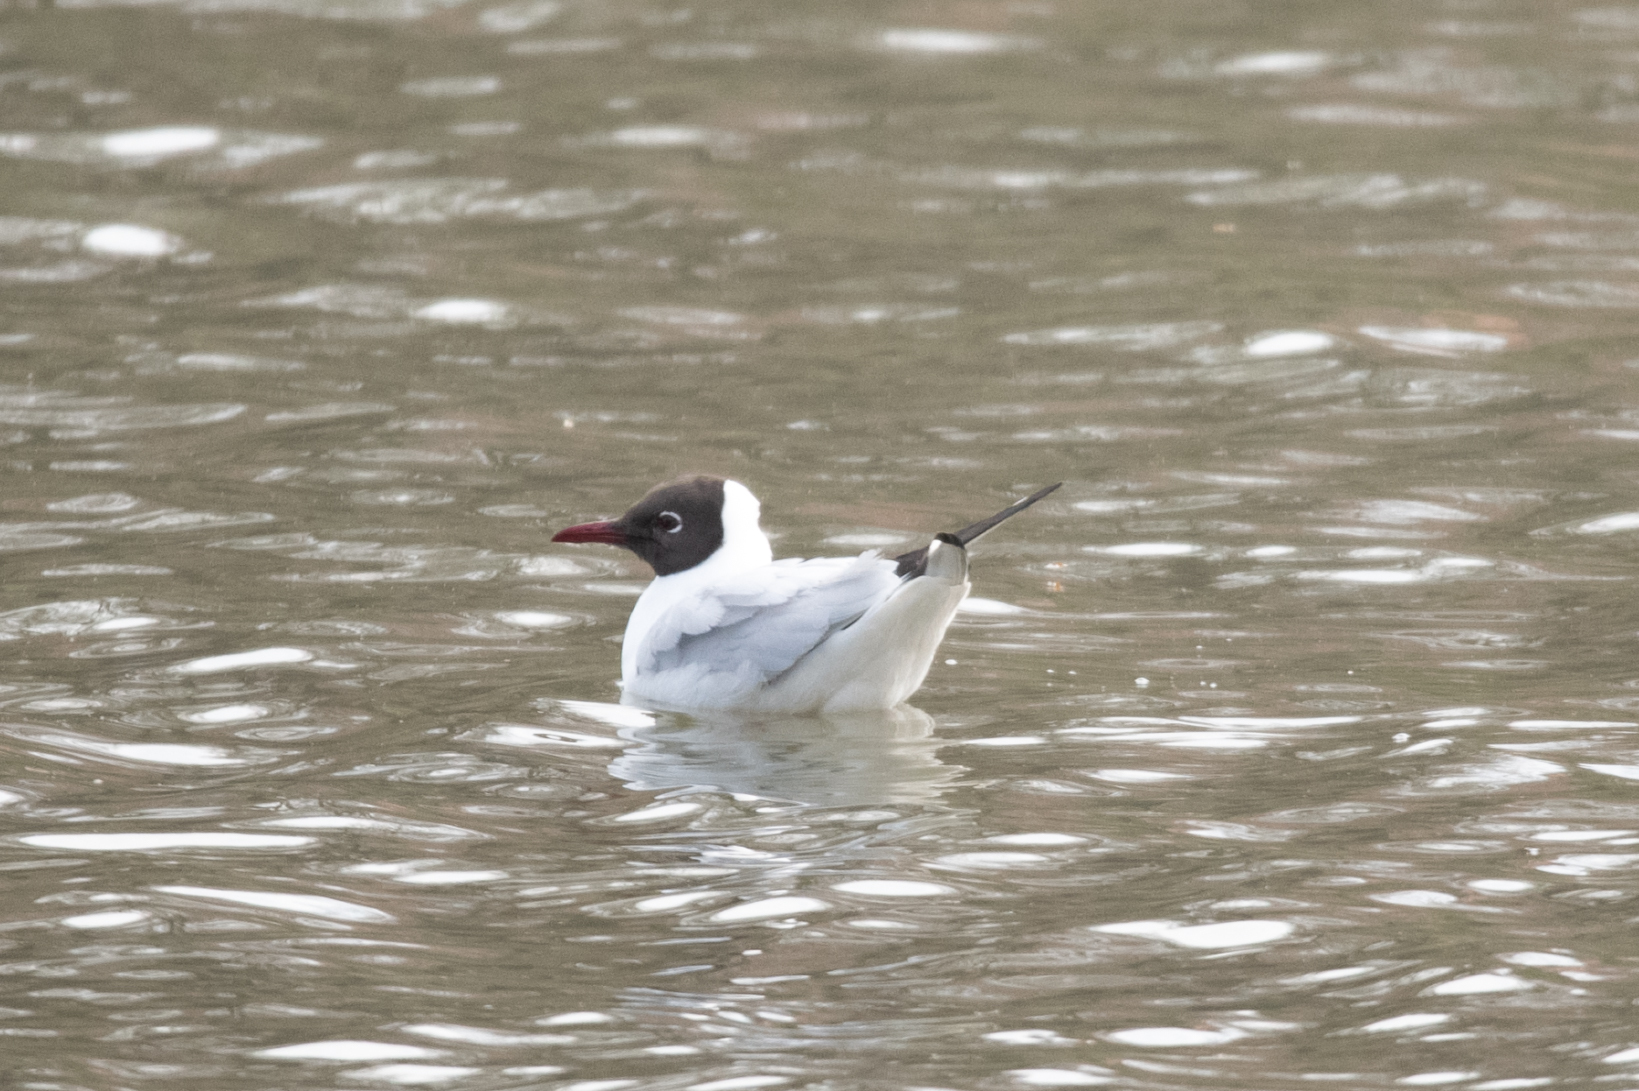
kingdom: Animalia
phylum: Chordata
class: Aves
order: Charadriiformes
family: Laridae
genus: Chroicocephalus
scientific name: Chroicocephalus ridibundus
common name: Black-headed gull
